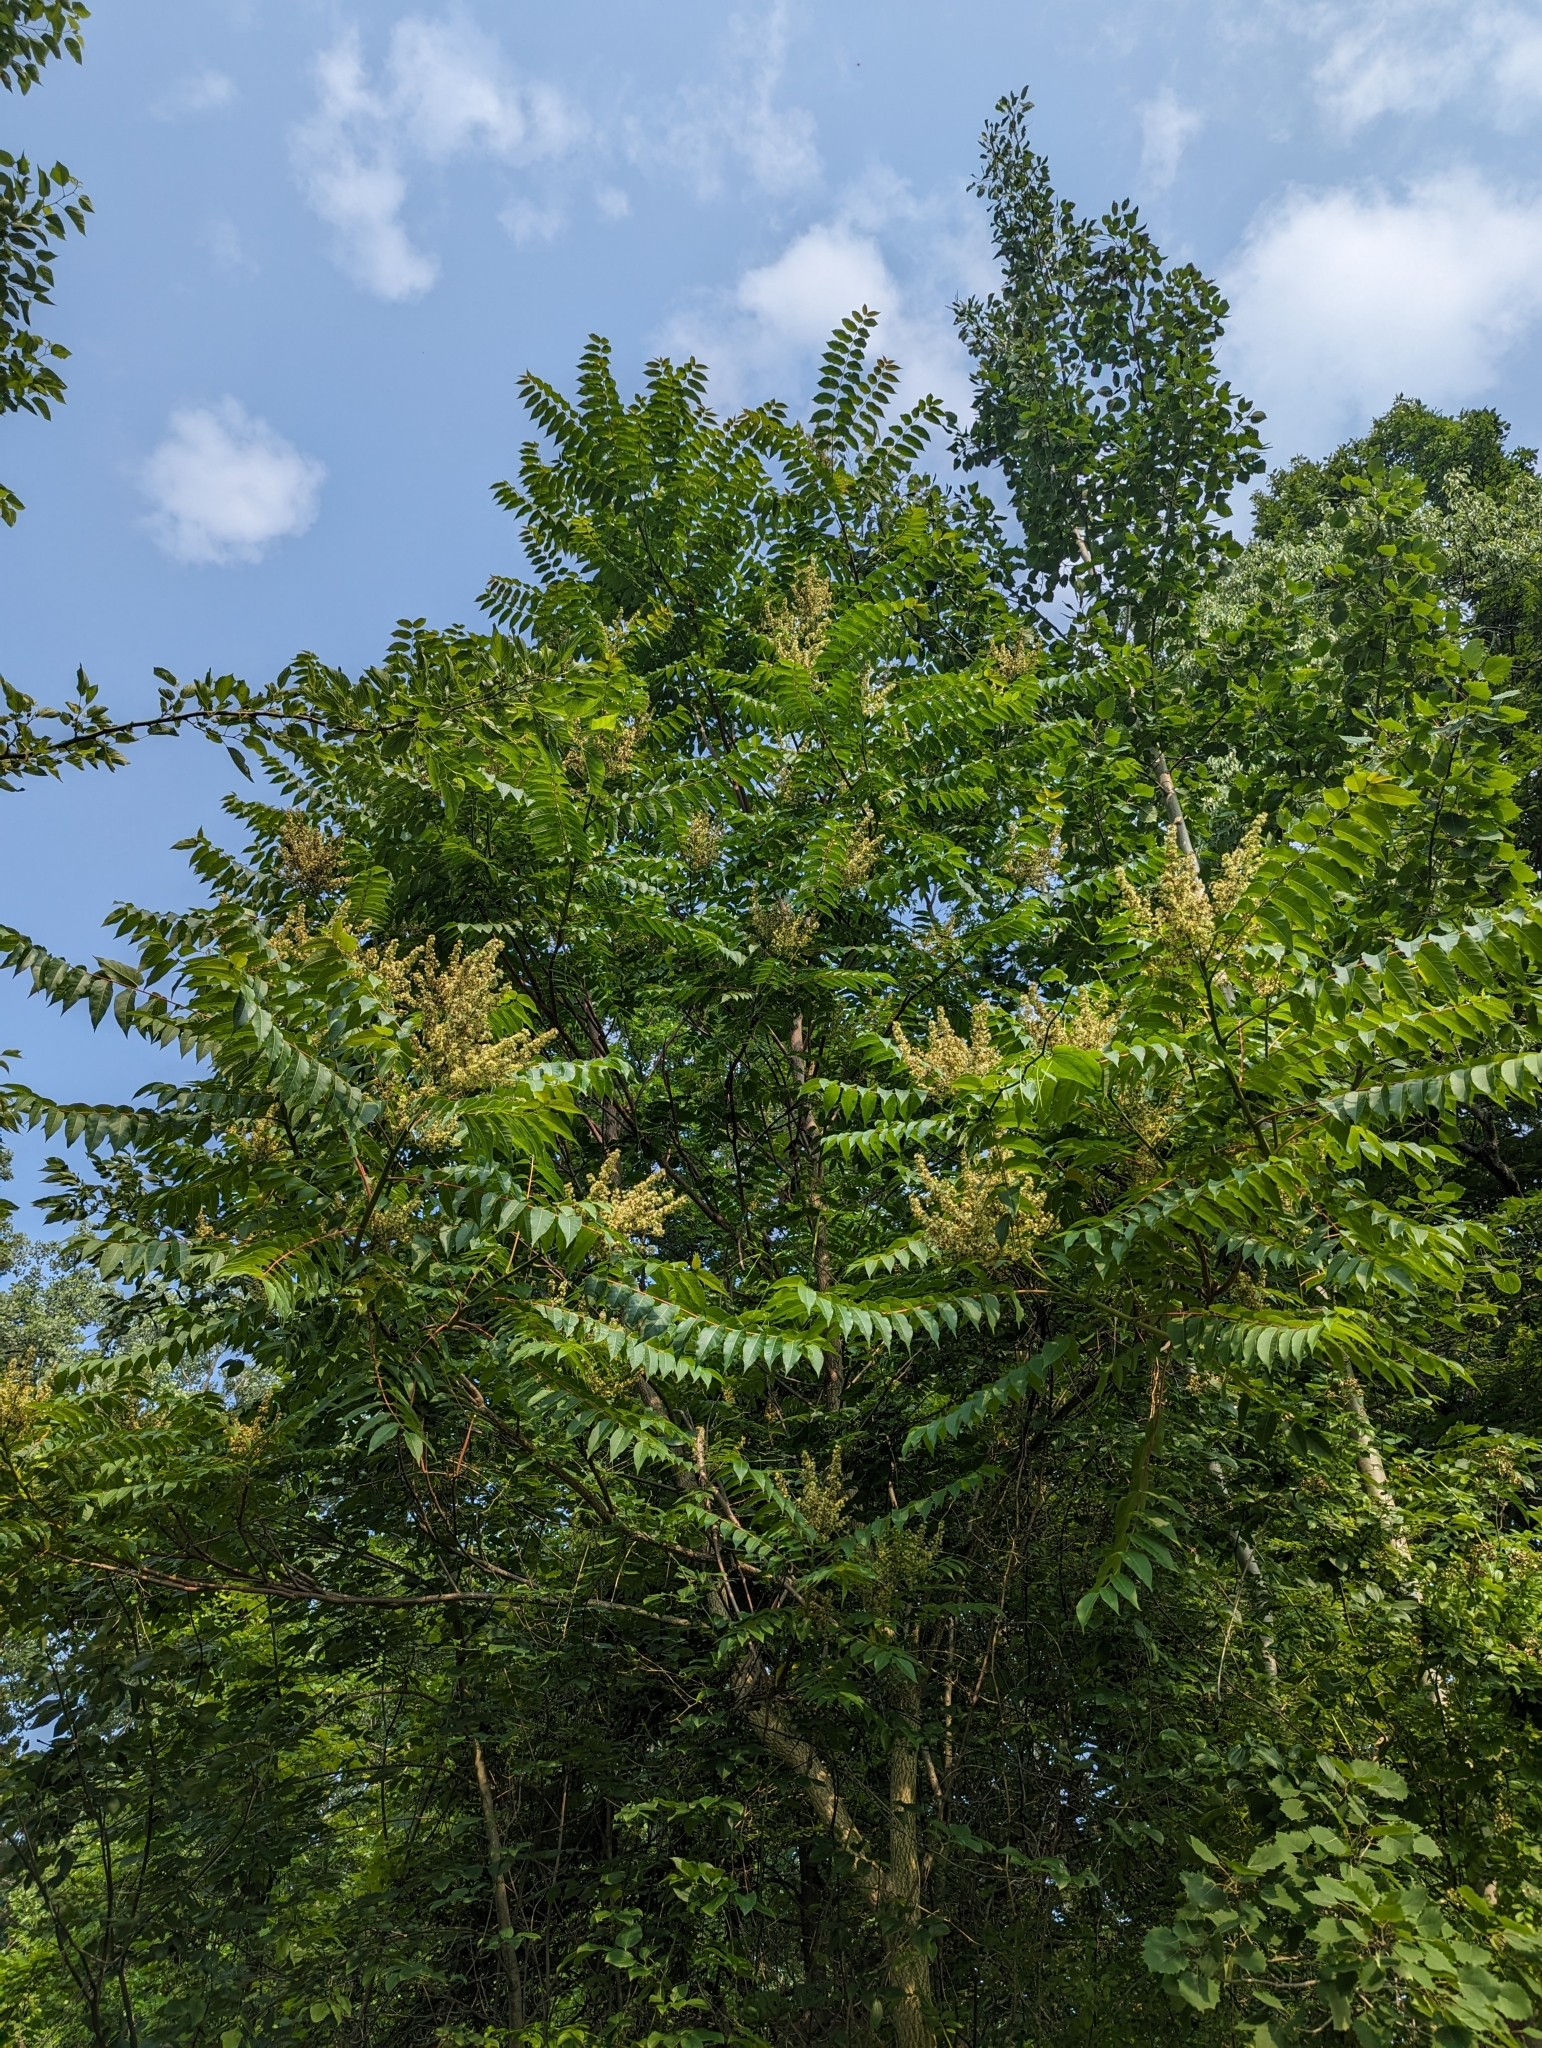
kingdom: Plantae
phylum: Tracheophyta
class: Magnoliopsida
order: Sapindales
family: Simaroubaceae
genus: Ailanthus
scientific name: Ailanthus altissima
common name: Tree-of-heaven
